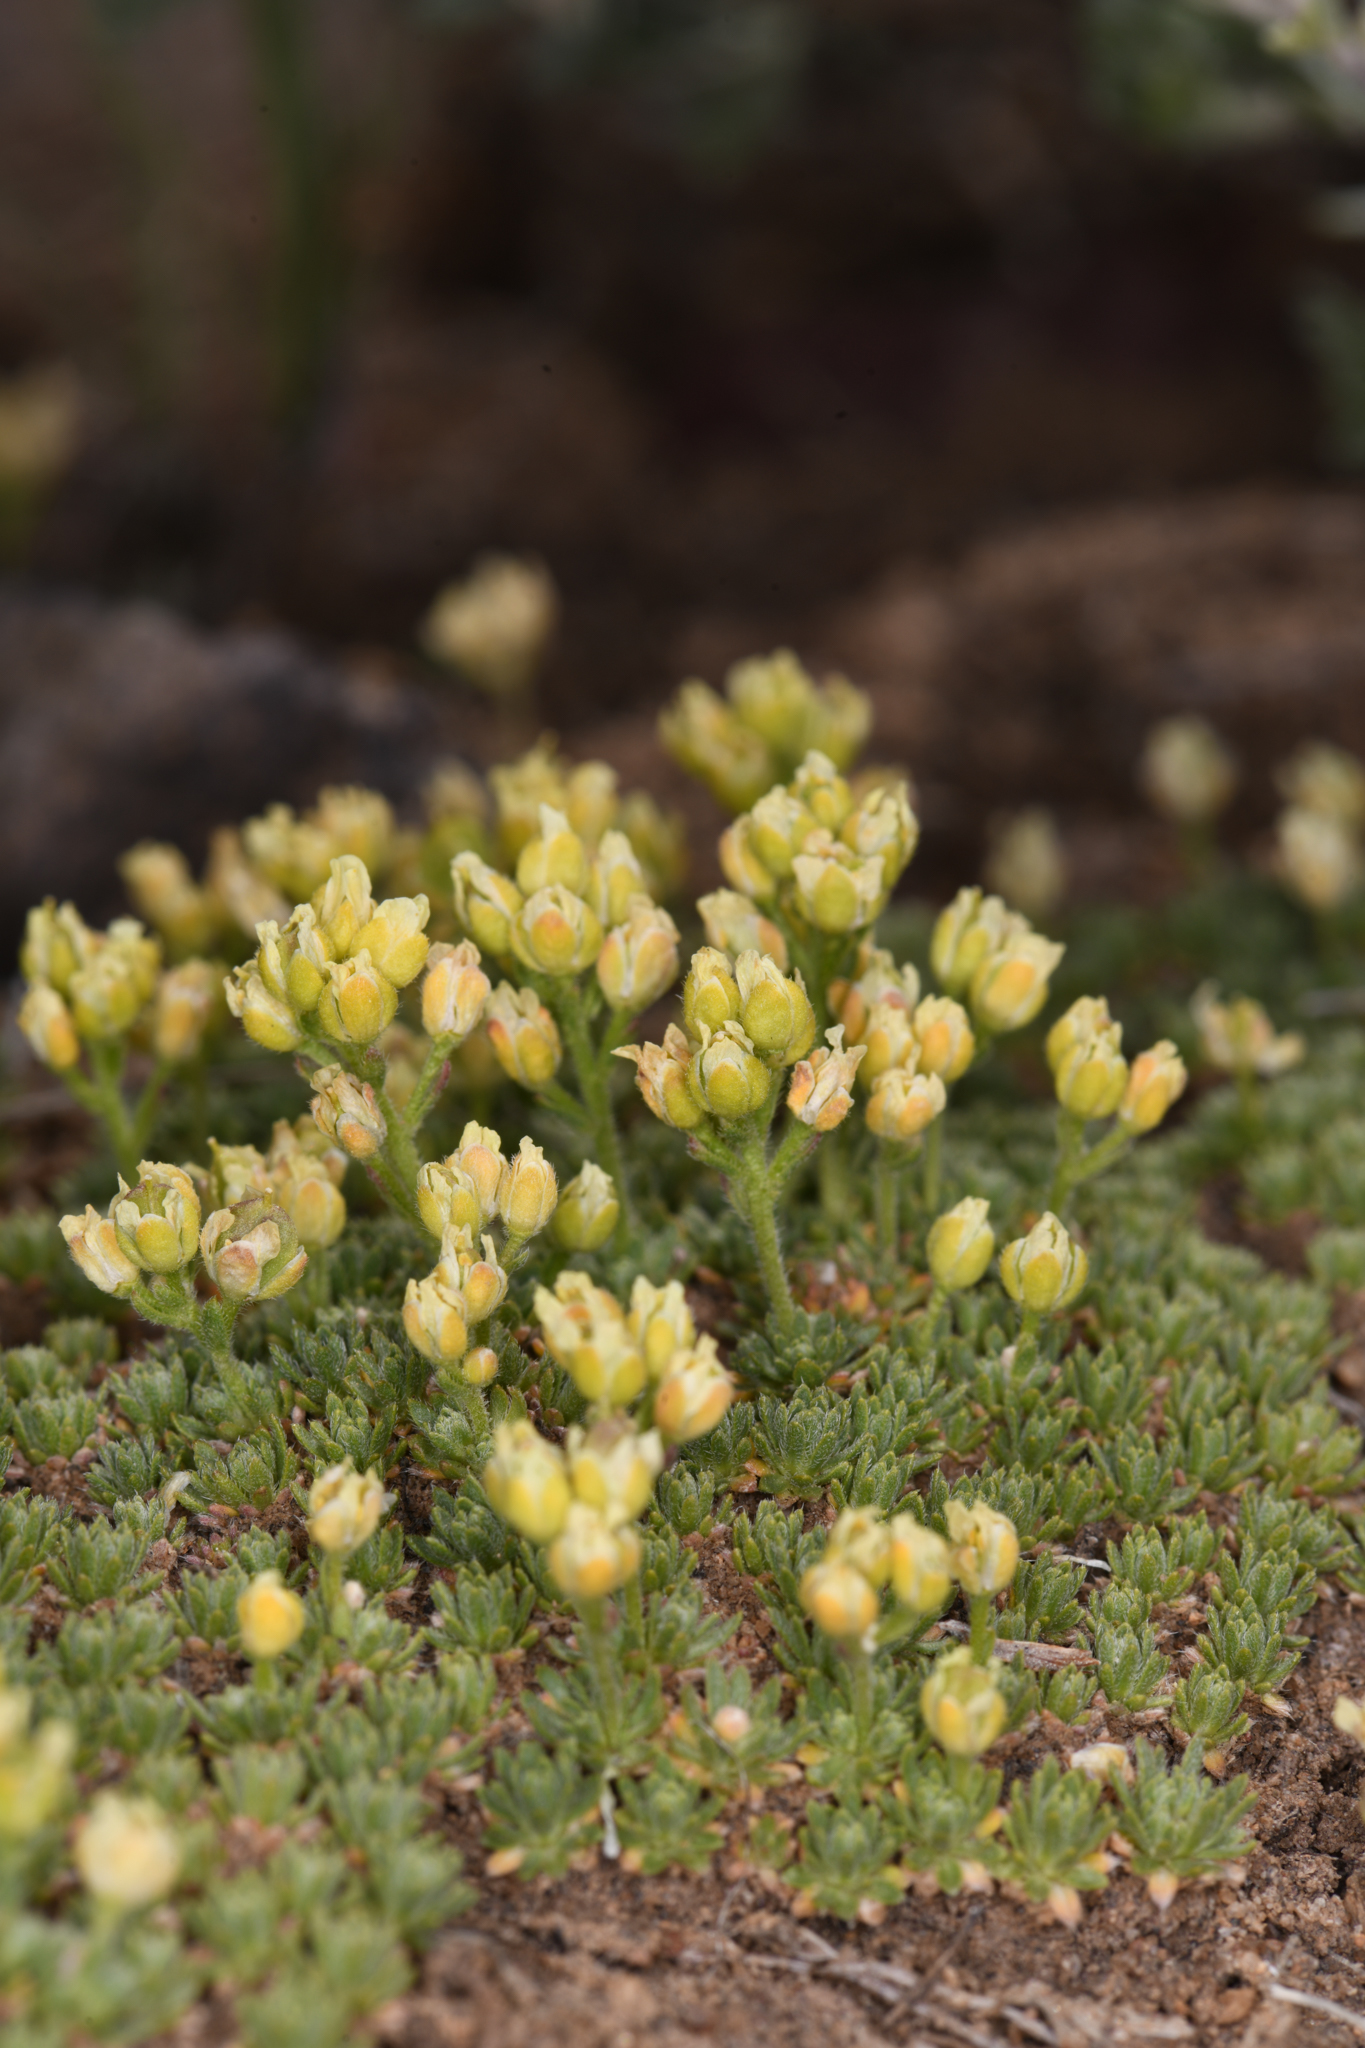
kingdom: Plantae
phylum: Tracheophyta
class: Magnoliopsida
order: Brassicales
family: Brassicaceae
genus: Cusickiella
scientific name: Cusickiella quadricostata
